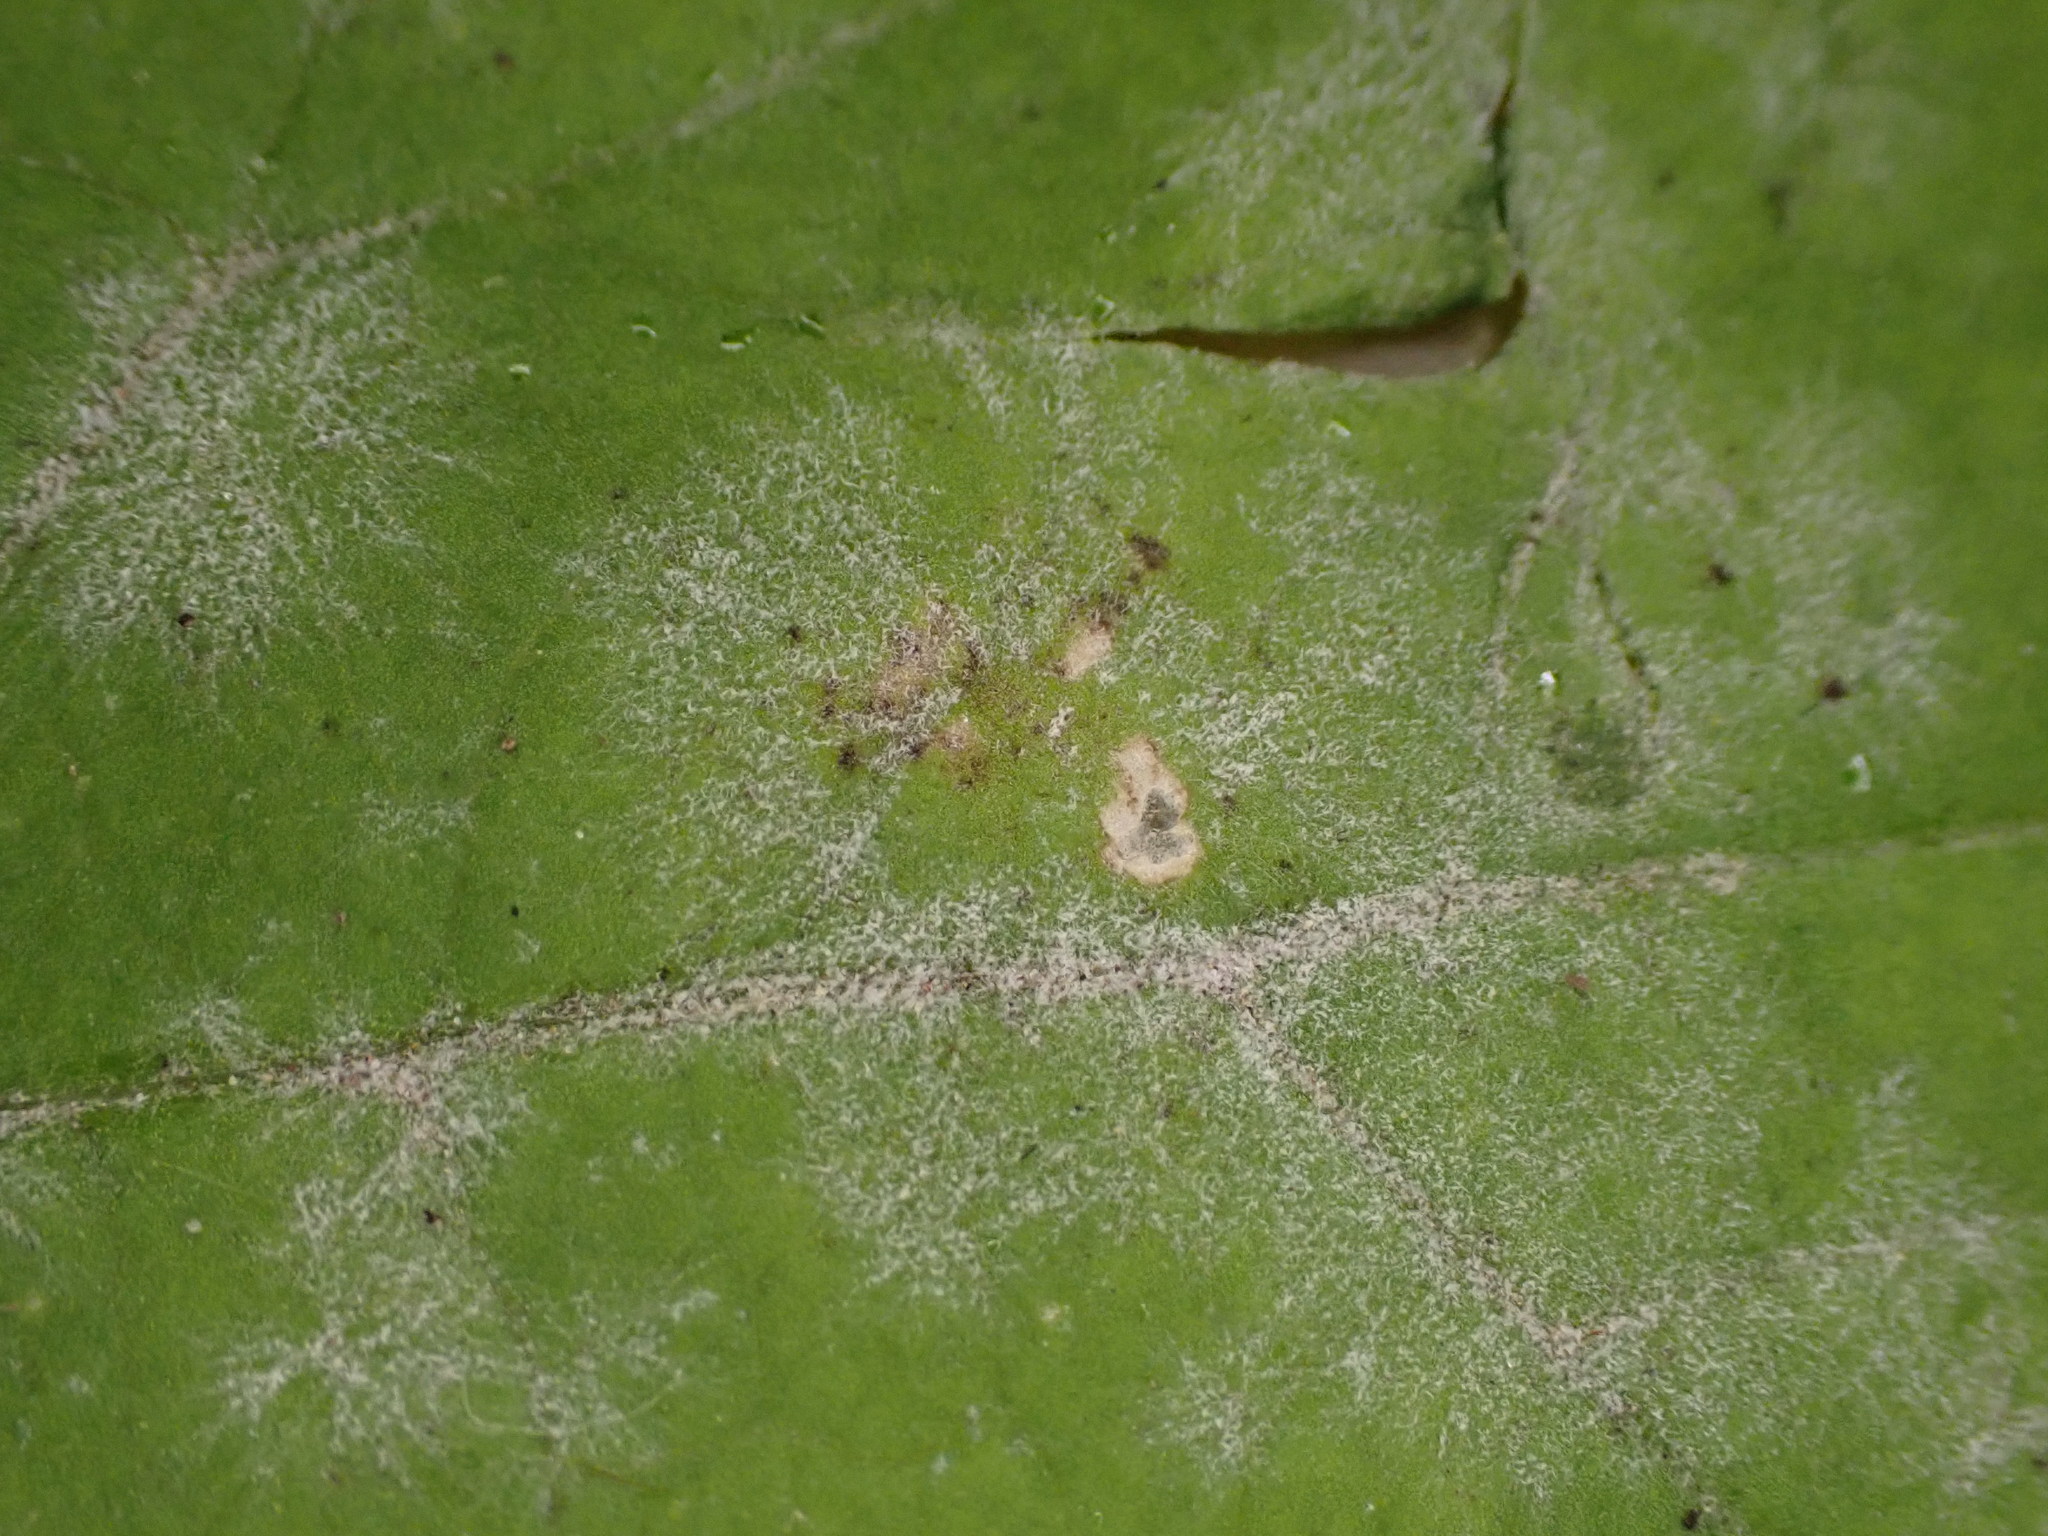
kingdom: Fungi
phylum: Ascomycota
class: Leotiomycetes
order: Helotiales
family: Erysiphaceae
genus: Erysiphe
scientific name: Erysiphe cruciferarum
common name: Brassica powdery mildew
